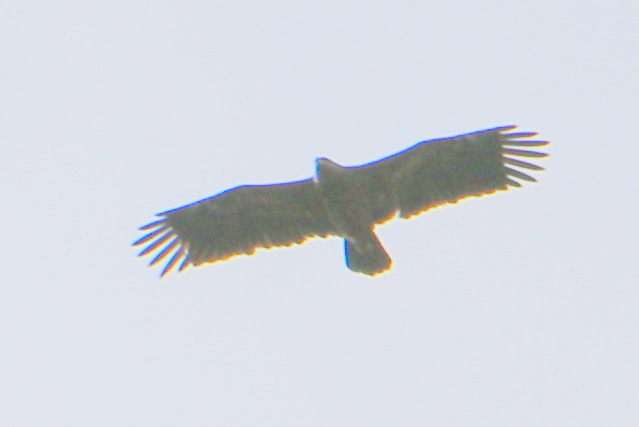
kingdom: Animalia
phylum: Chordata
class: Aves
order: Accipitriformes
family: Accipitridae
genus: Aquila
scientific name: Aquila pomarina
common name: Lesser spotted eagle
